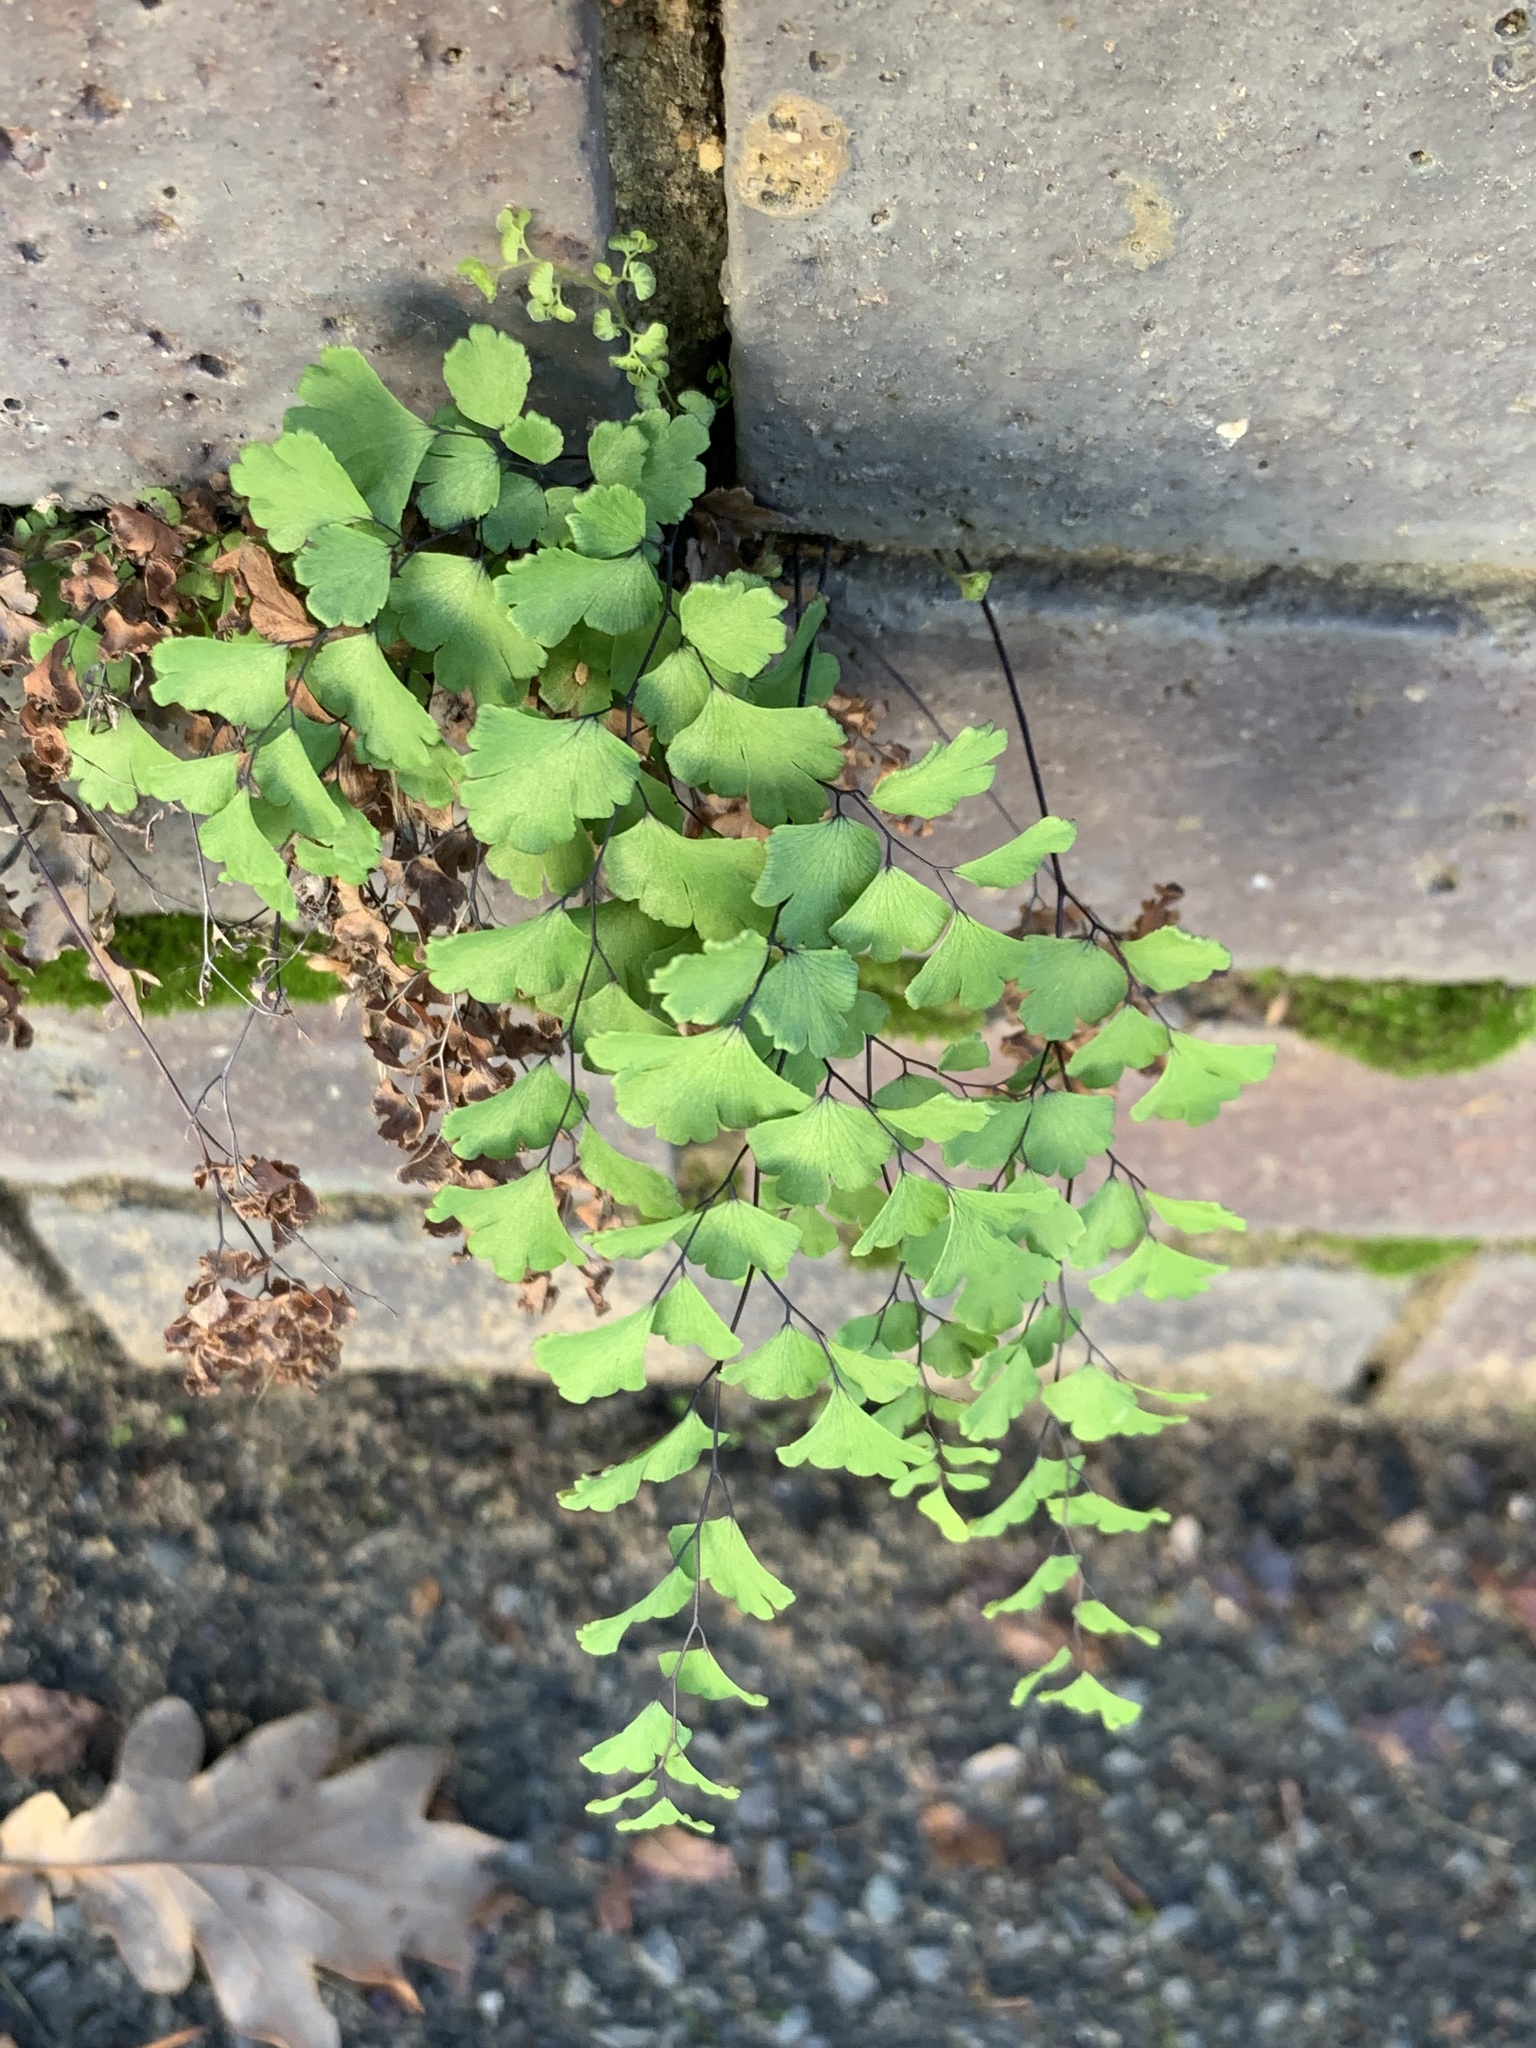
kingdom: Plantae
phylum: Tracheophyta
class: Polypodiopsida
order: Polypodiales
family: Pteridaceae
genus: Adiantum
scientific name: Adiantum capillus-veneris
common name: Maidenhair fern
